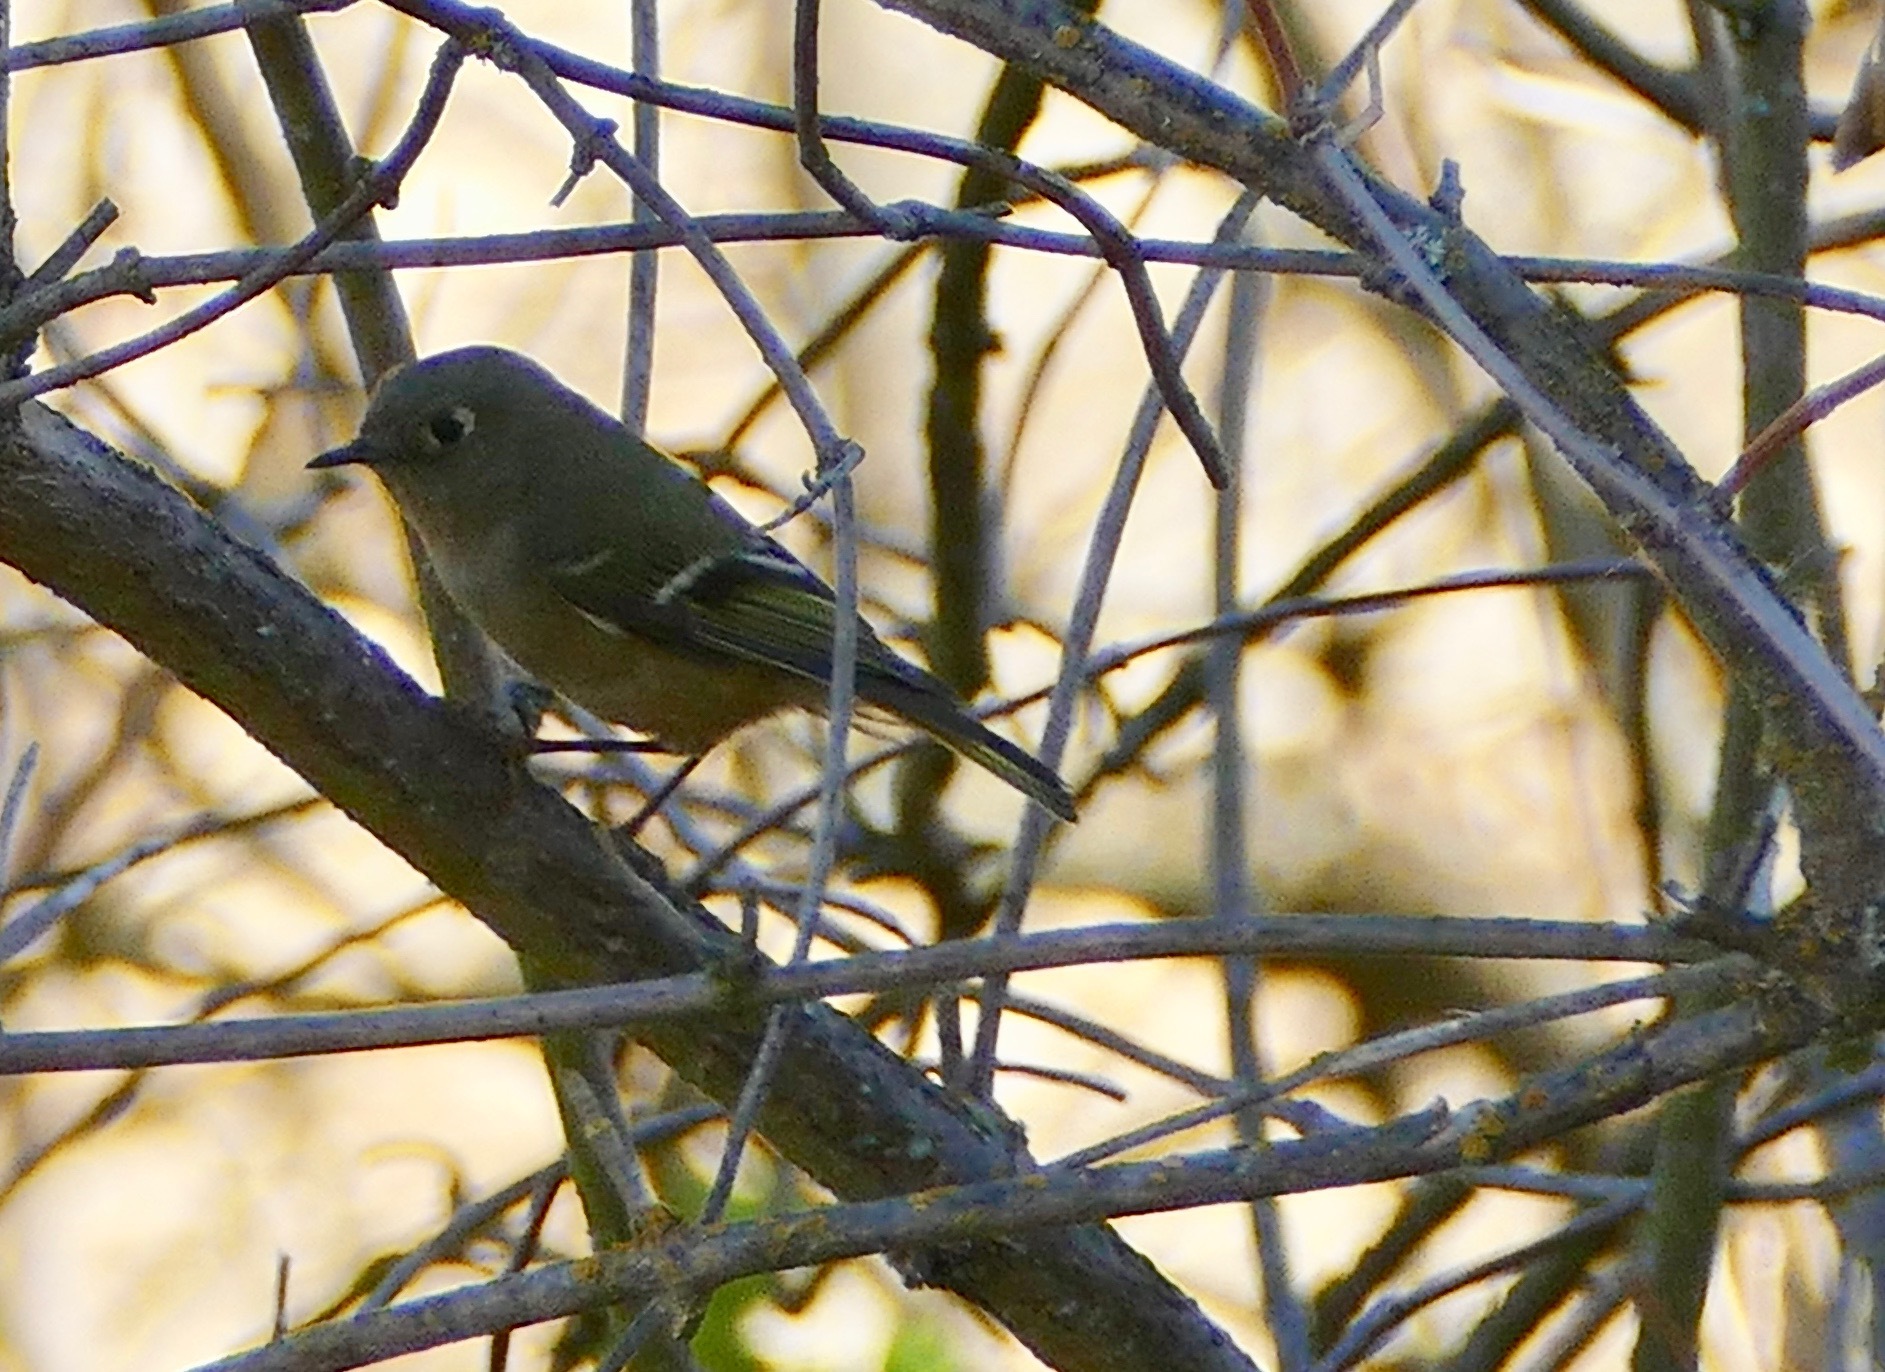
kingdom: Animalia
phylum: Chordata
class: Aves
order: Passeriformes
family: Regulidae
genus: Regulus
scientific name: Regulus calendula
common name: Ruby-crowned kinglet
